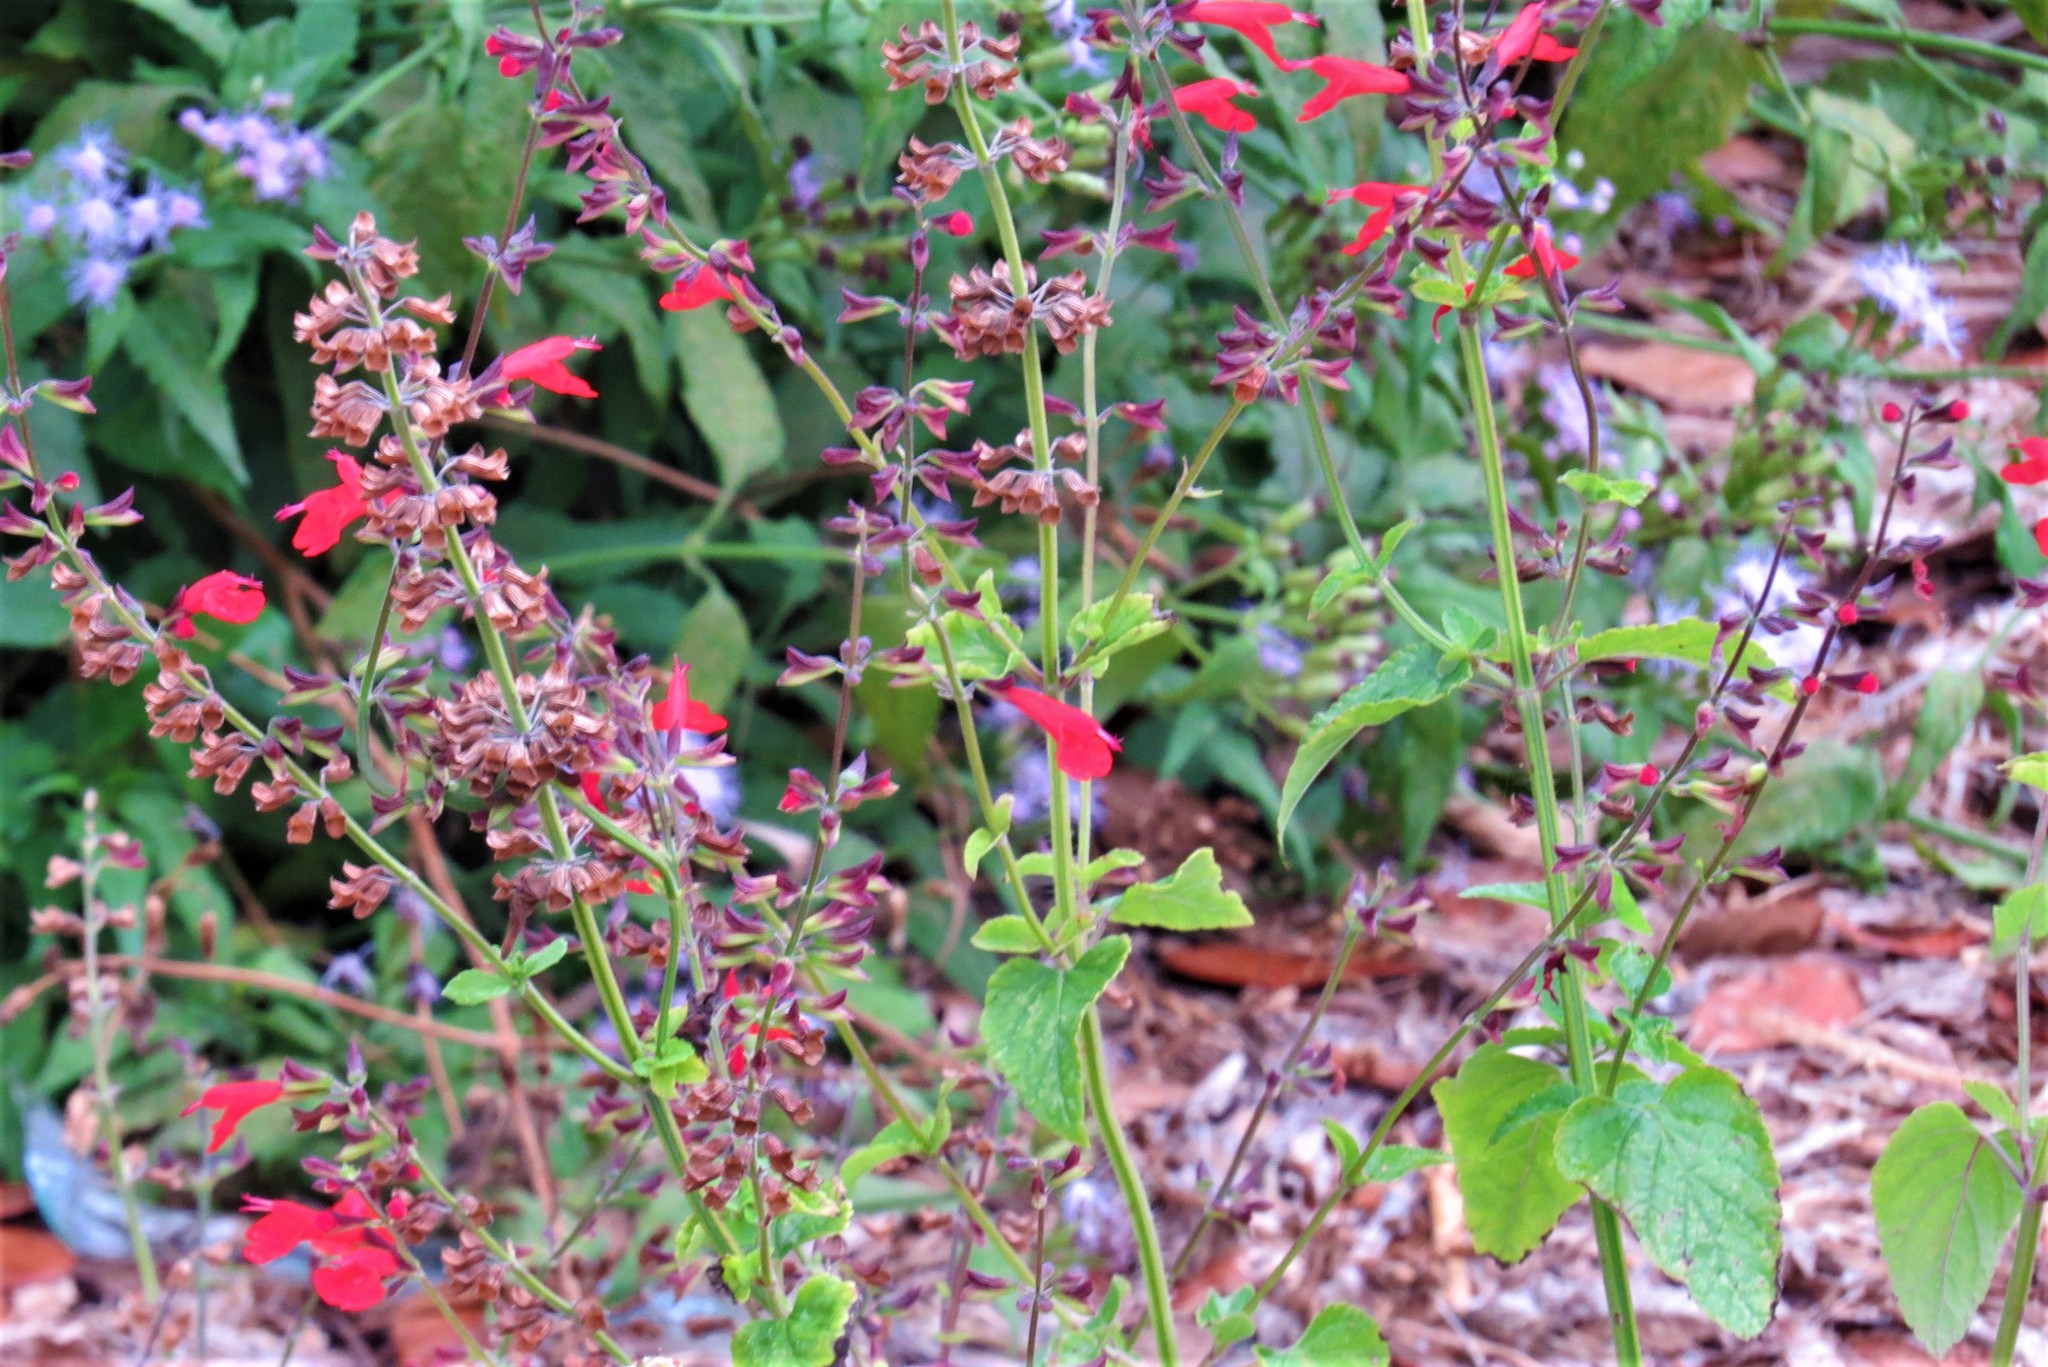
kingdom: Plantae
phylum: Tracheophyta
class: Magnoliopsida
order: Lamiales
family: Lamiaceae
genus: Salvia
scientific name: Salvia coccinea
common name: Blood sage
